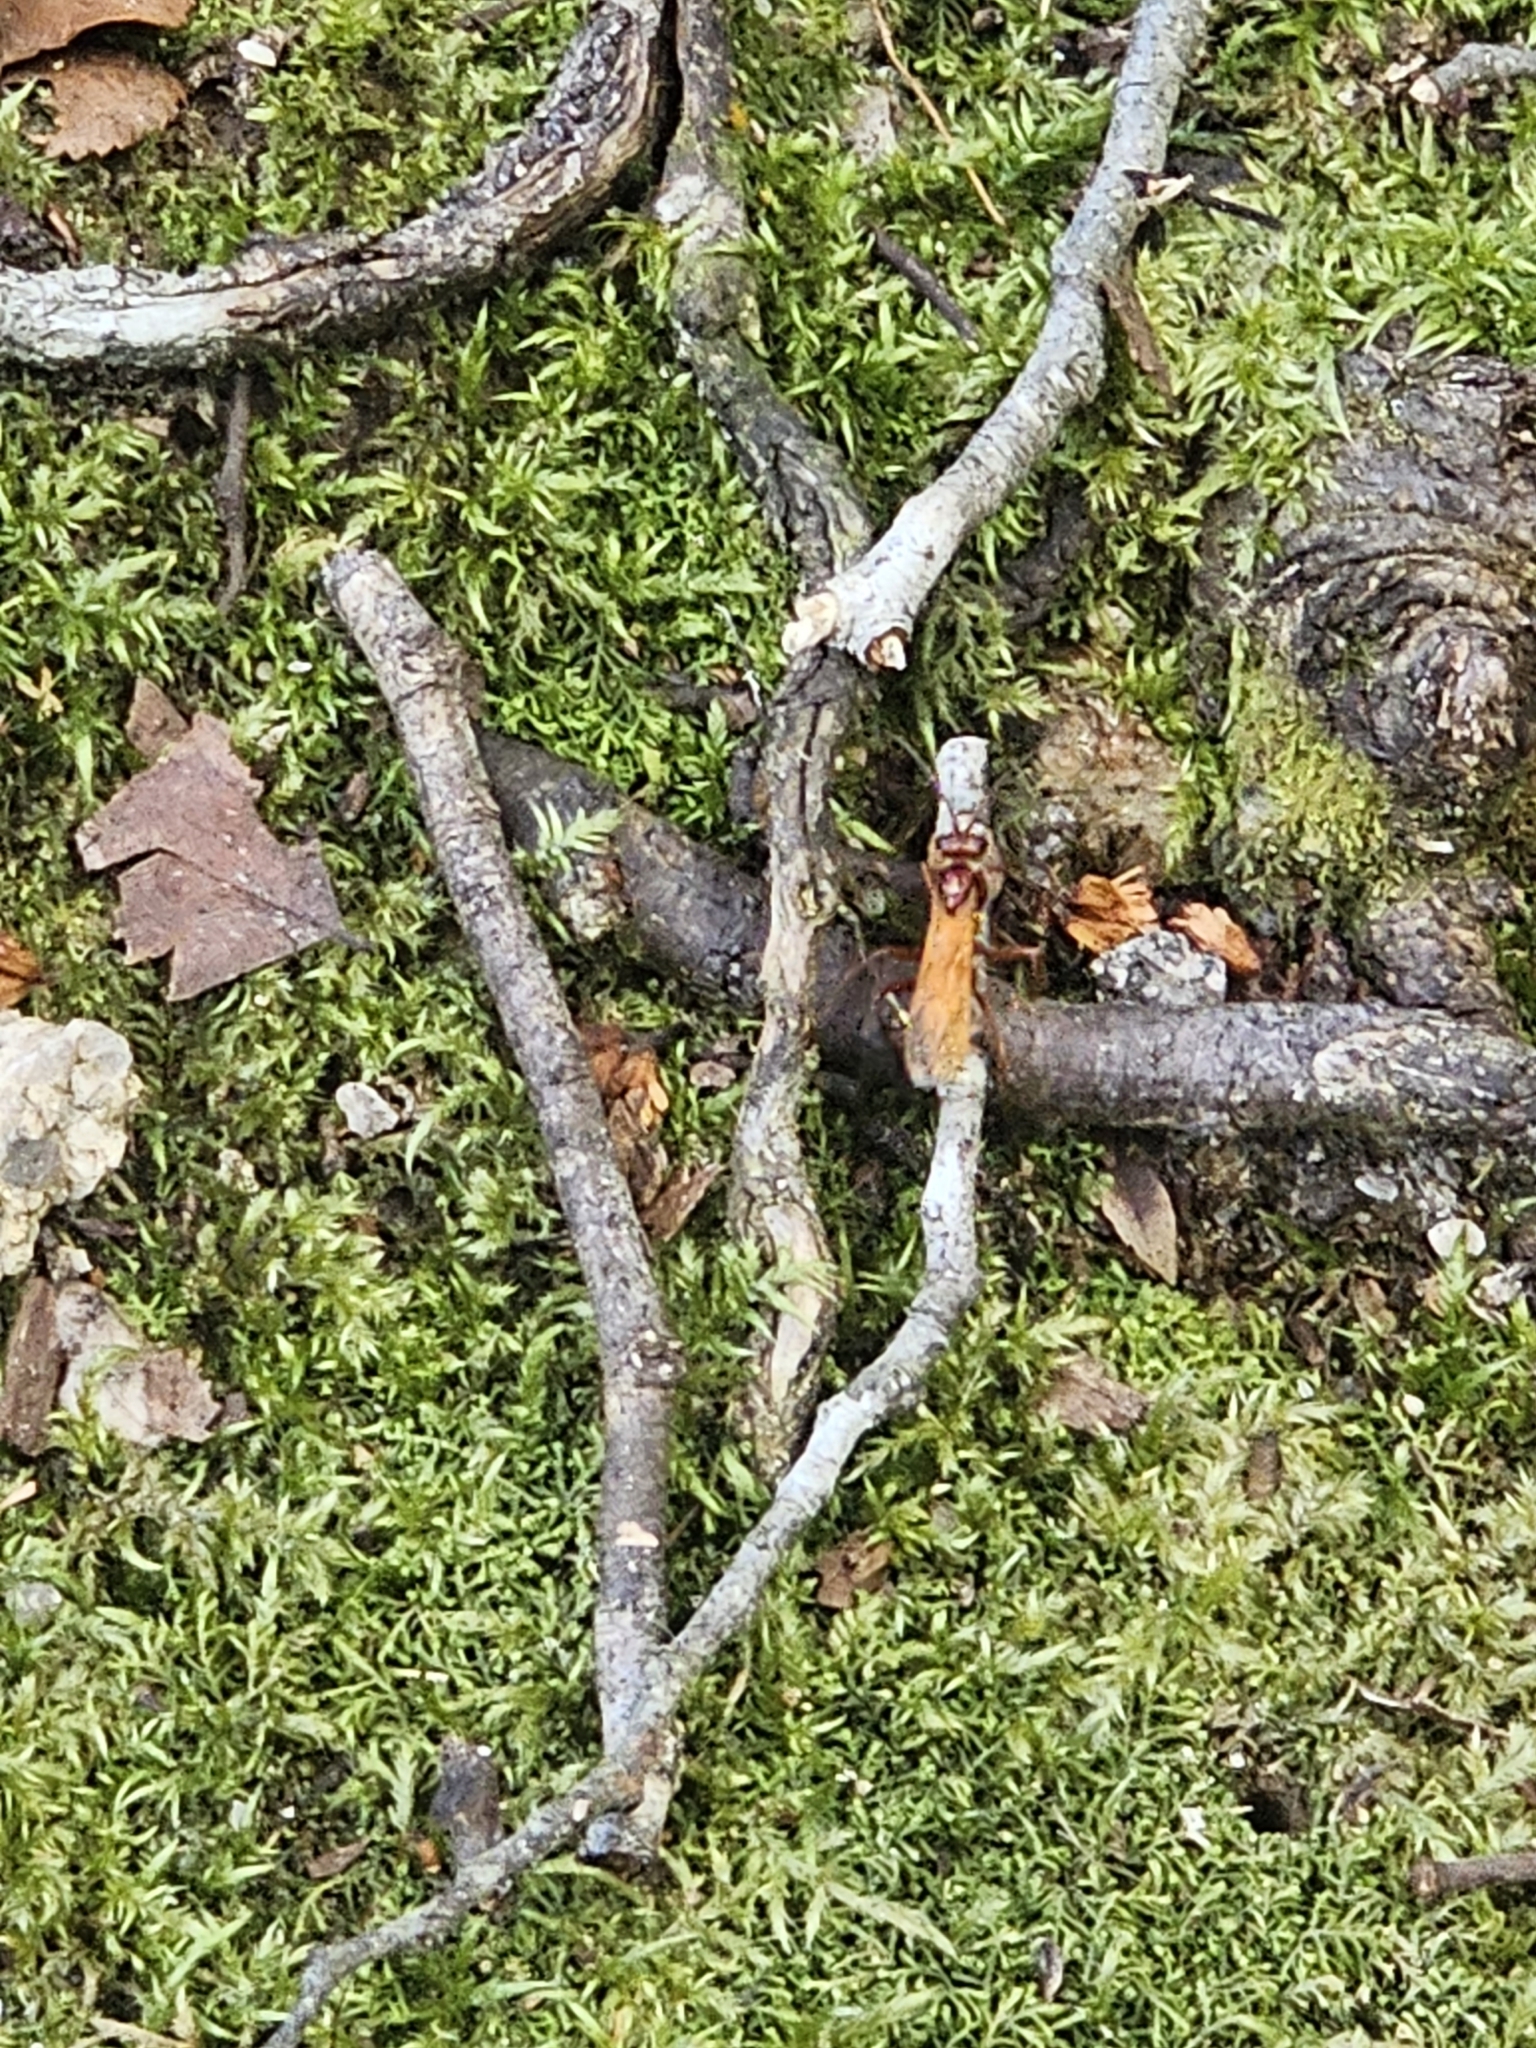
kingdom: Animalia
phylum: Arthropoda
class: Insecta
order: Hymenoptera
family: Pompilidae
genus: Sphictostethus
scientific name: Sphictostethus nitidus
